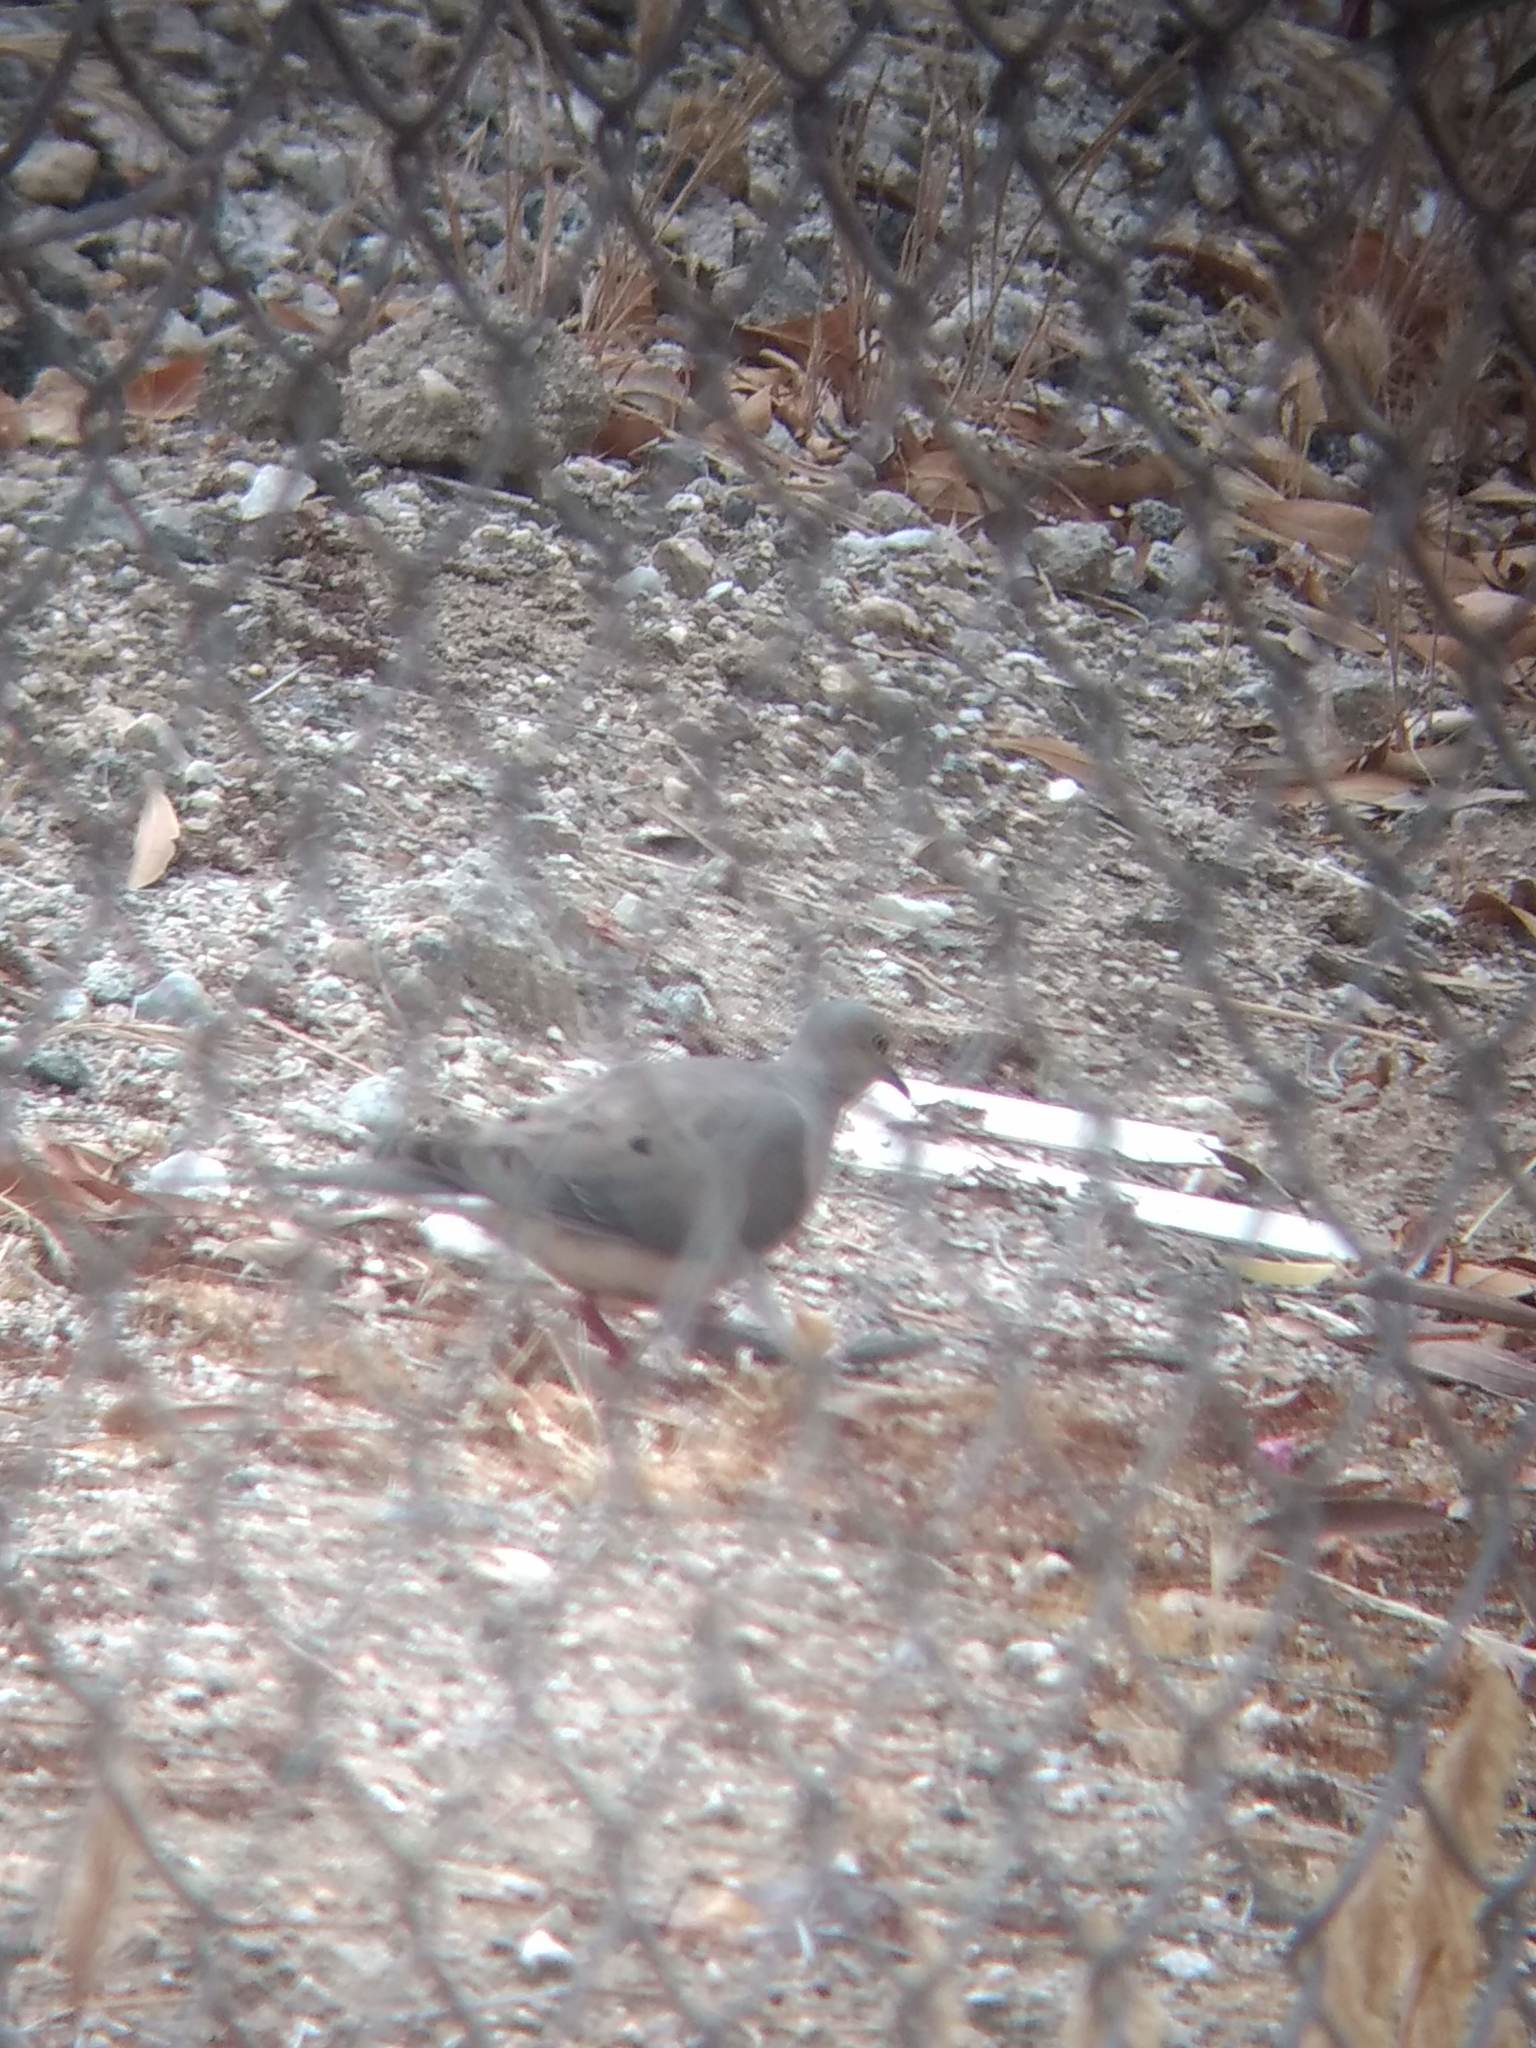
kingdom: Animalia
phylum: Chordata
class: Aves
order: Columbiformes
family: Columbidae
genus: Zenaida
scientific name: Zenaida macroura
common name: Mourning dove
